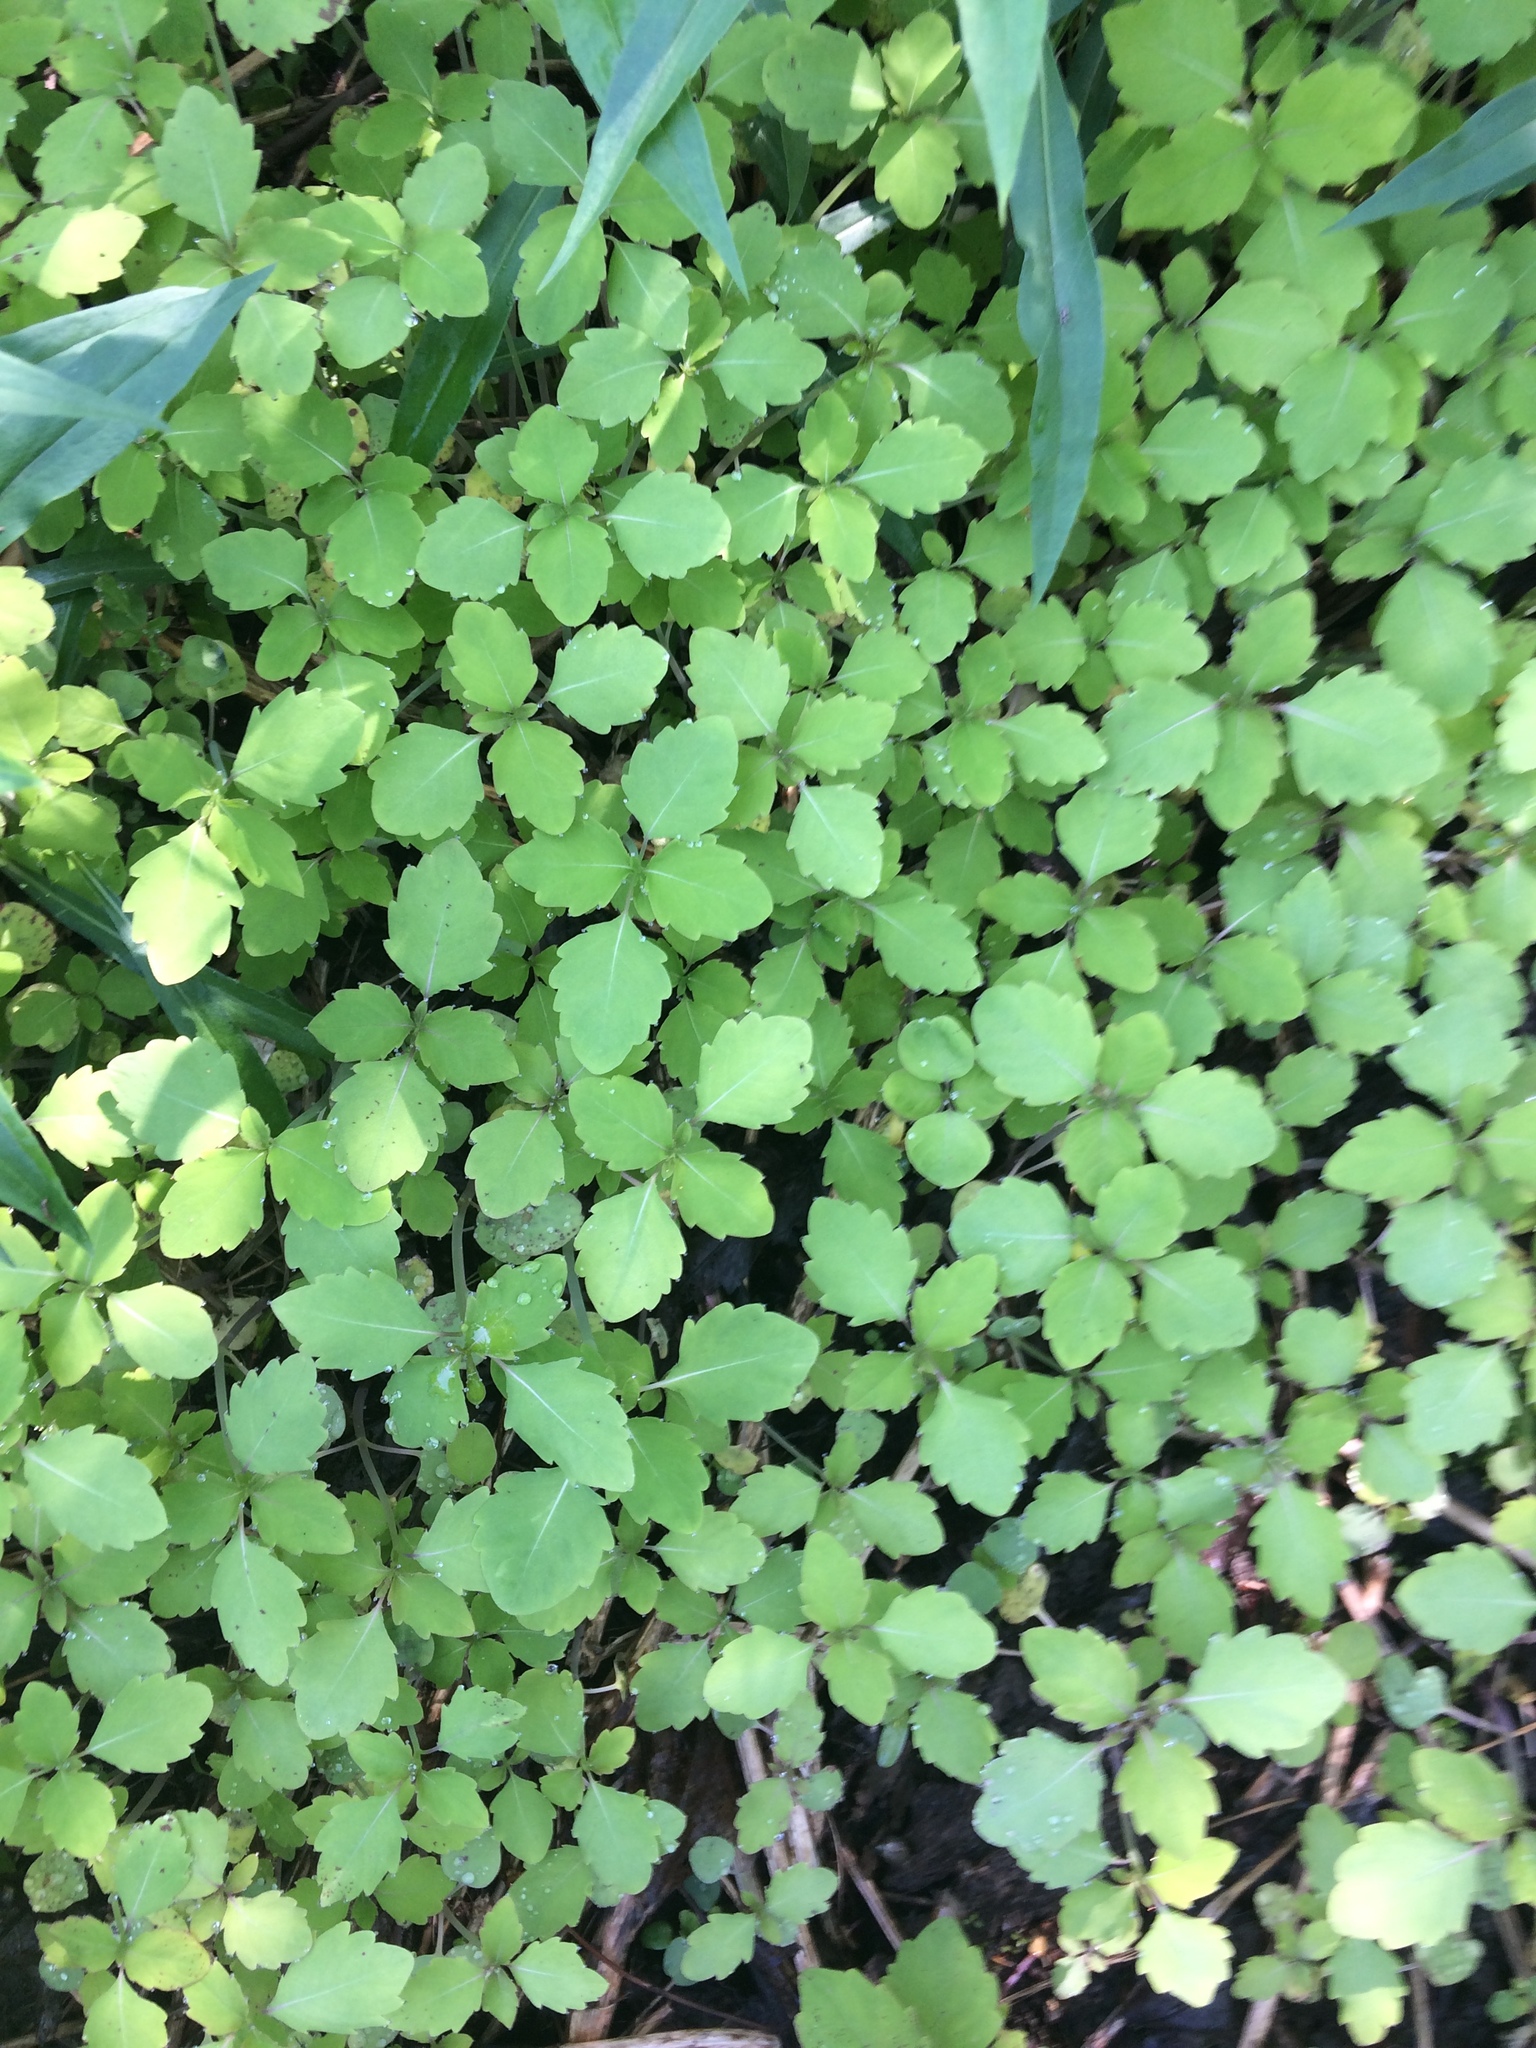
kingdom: Plantae
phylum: Tracheophyta
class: Magnoliopsida
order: Ericales
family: Balsaminaceae
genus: Impatiens
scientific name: Impatiens capensis
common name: Orange balsam
